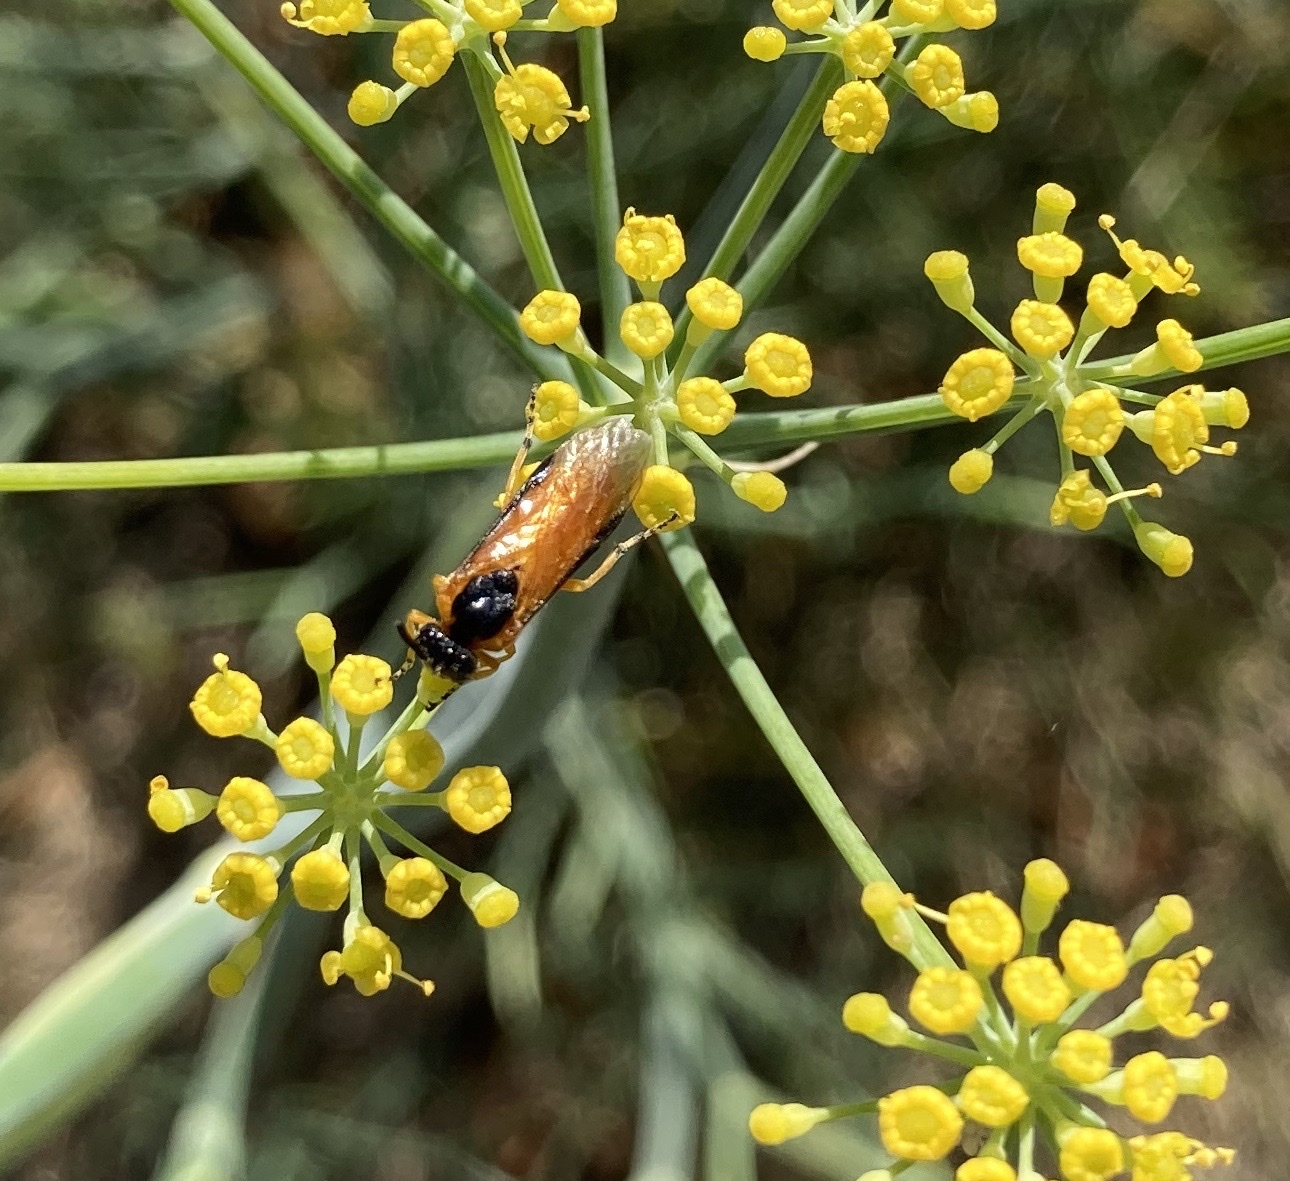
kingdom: Animalia
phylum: Arthropoda
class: Insecta
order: Hymenoptera
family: Argidae
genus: Arge
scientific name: Arge ochropus
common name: Argid sawfly
